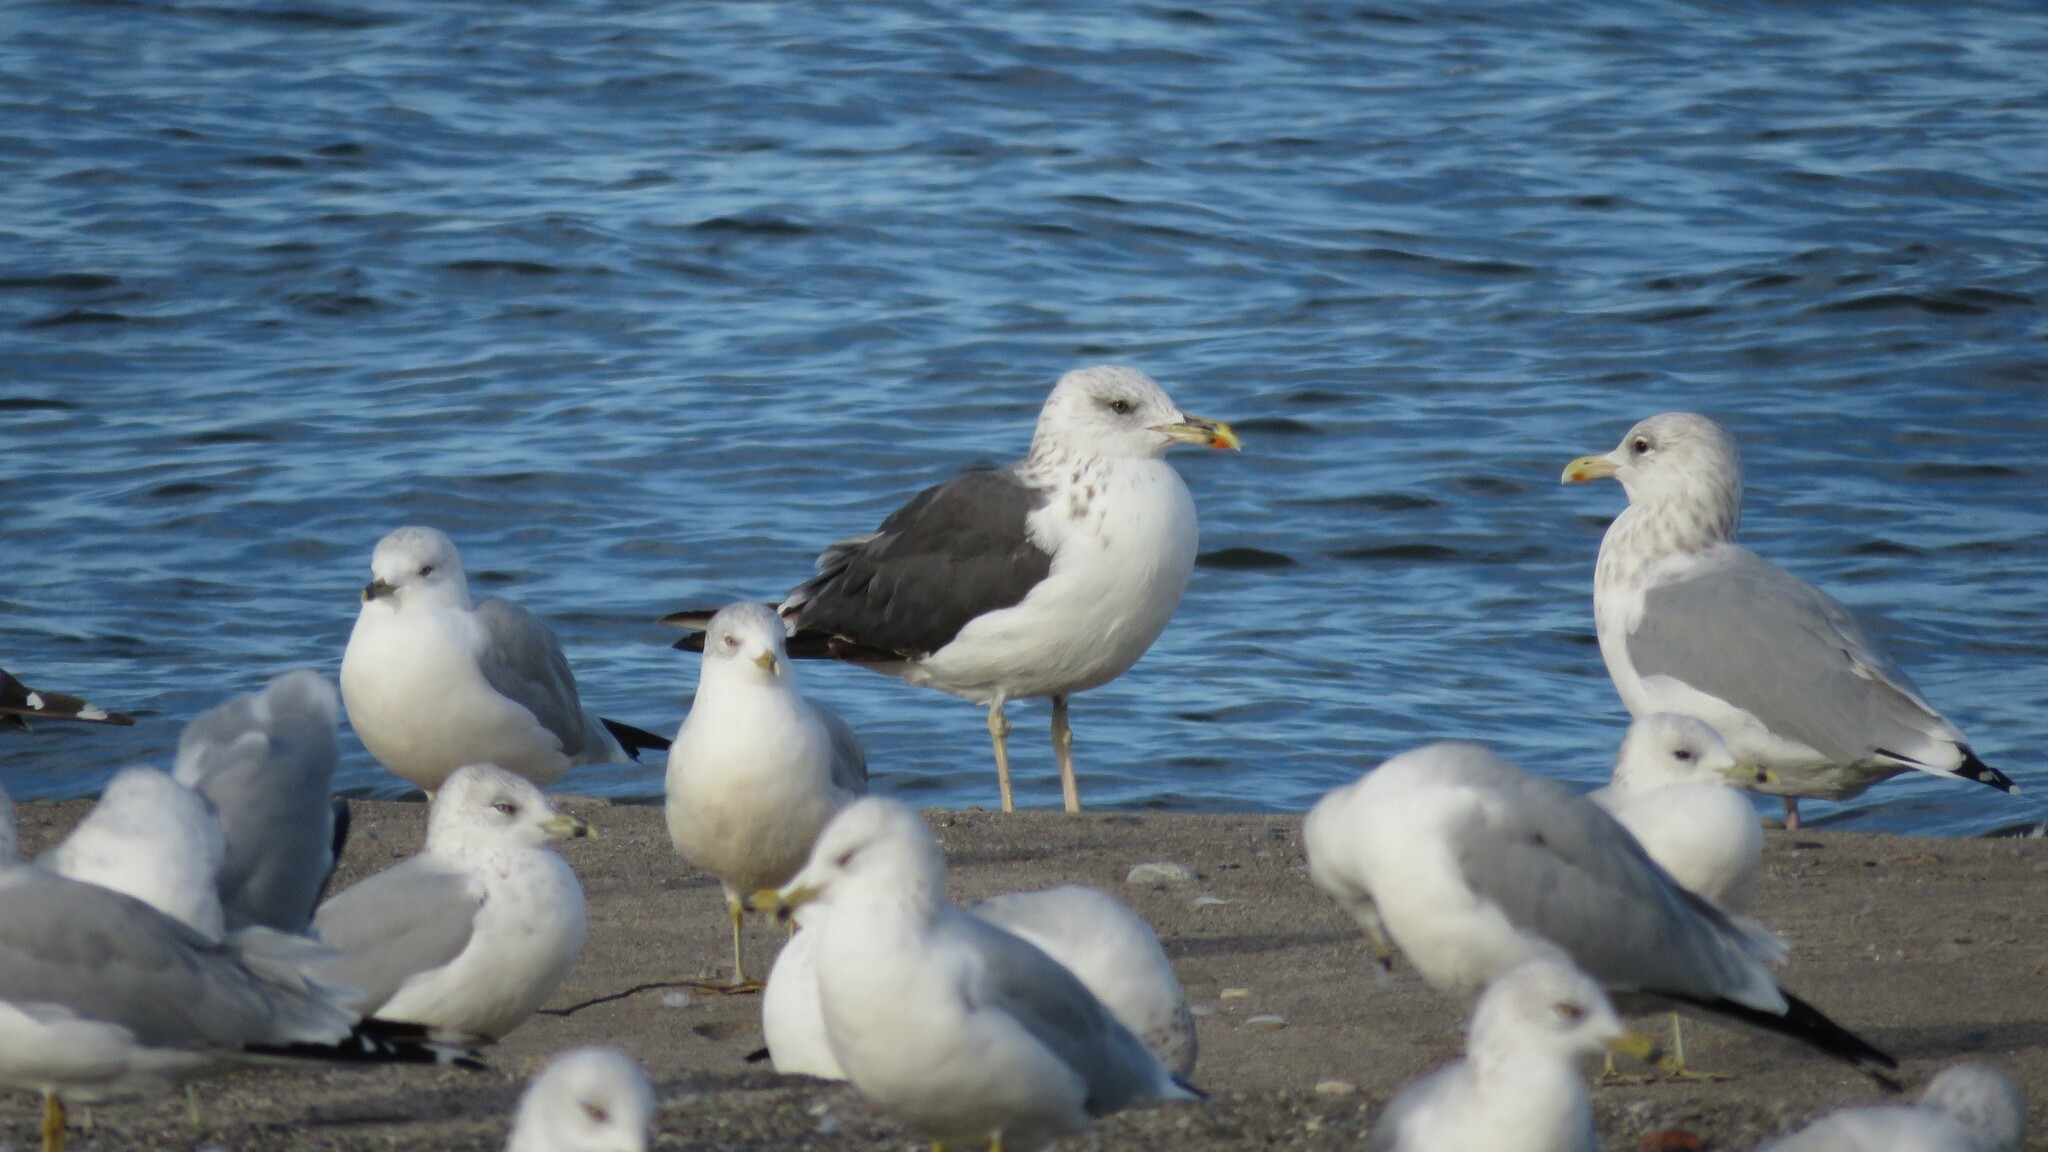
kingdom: Animalia
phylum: Chordata
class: Aves
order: Charadriiformes
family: Laridae
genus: Larus
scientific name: Larus fuscus
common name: Lesser black-backed gull
